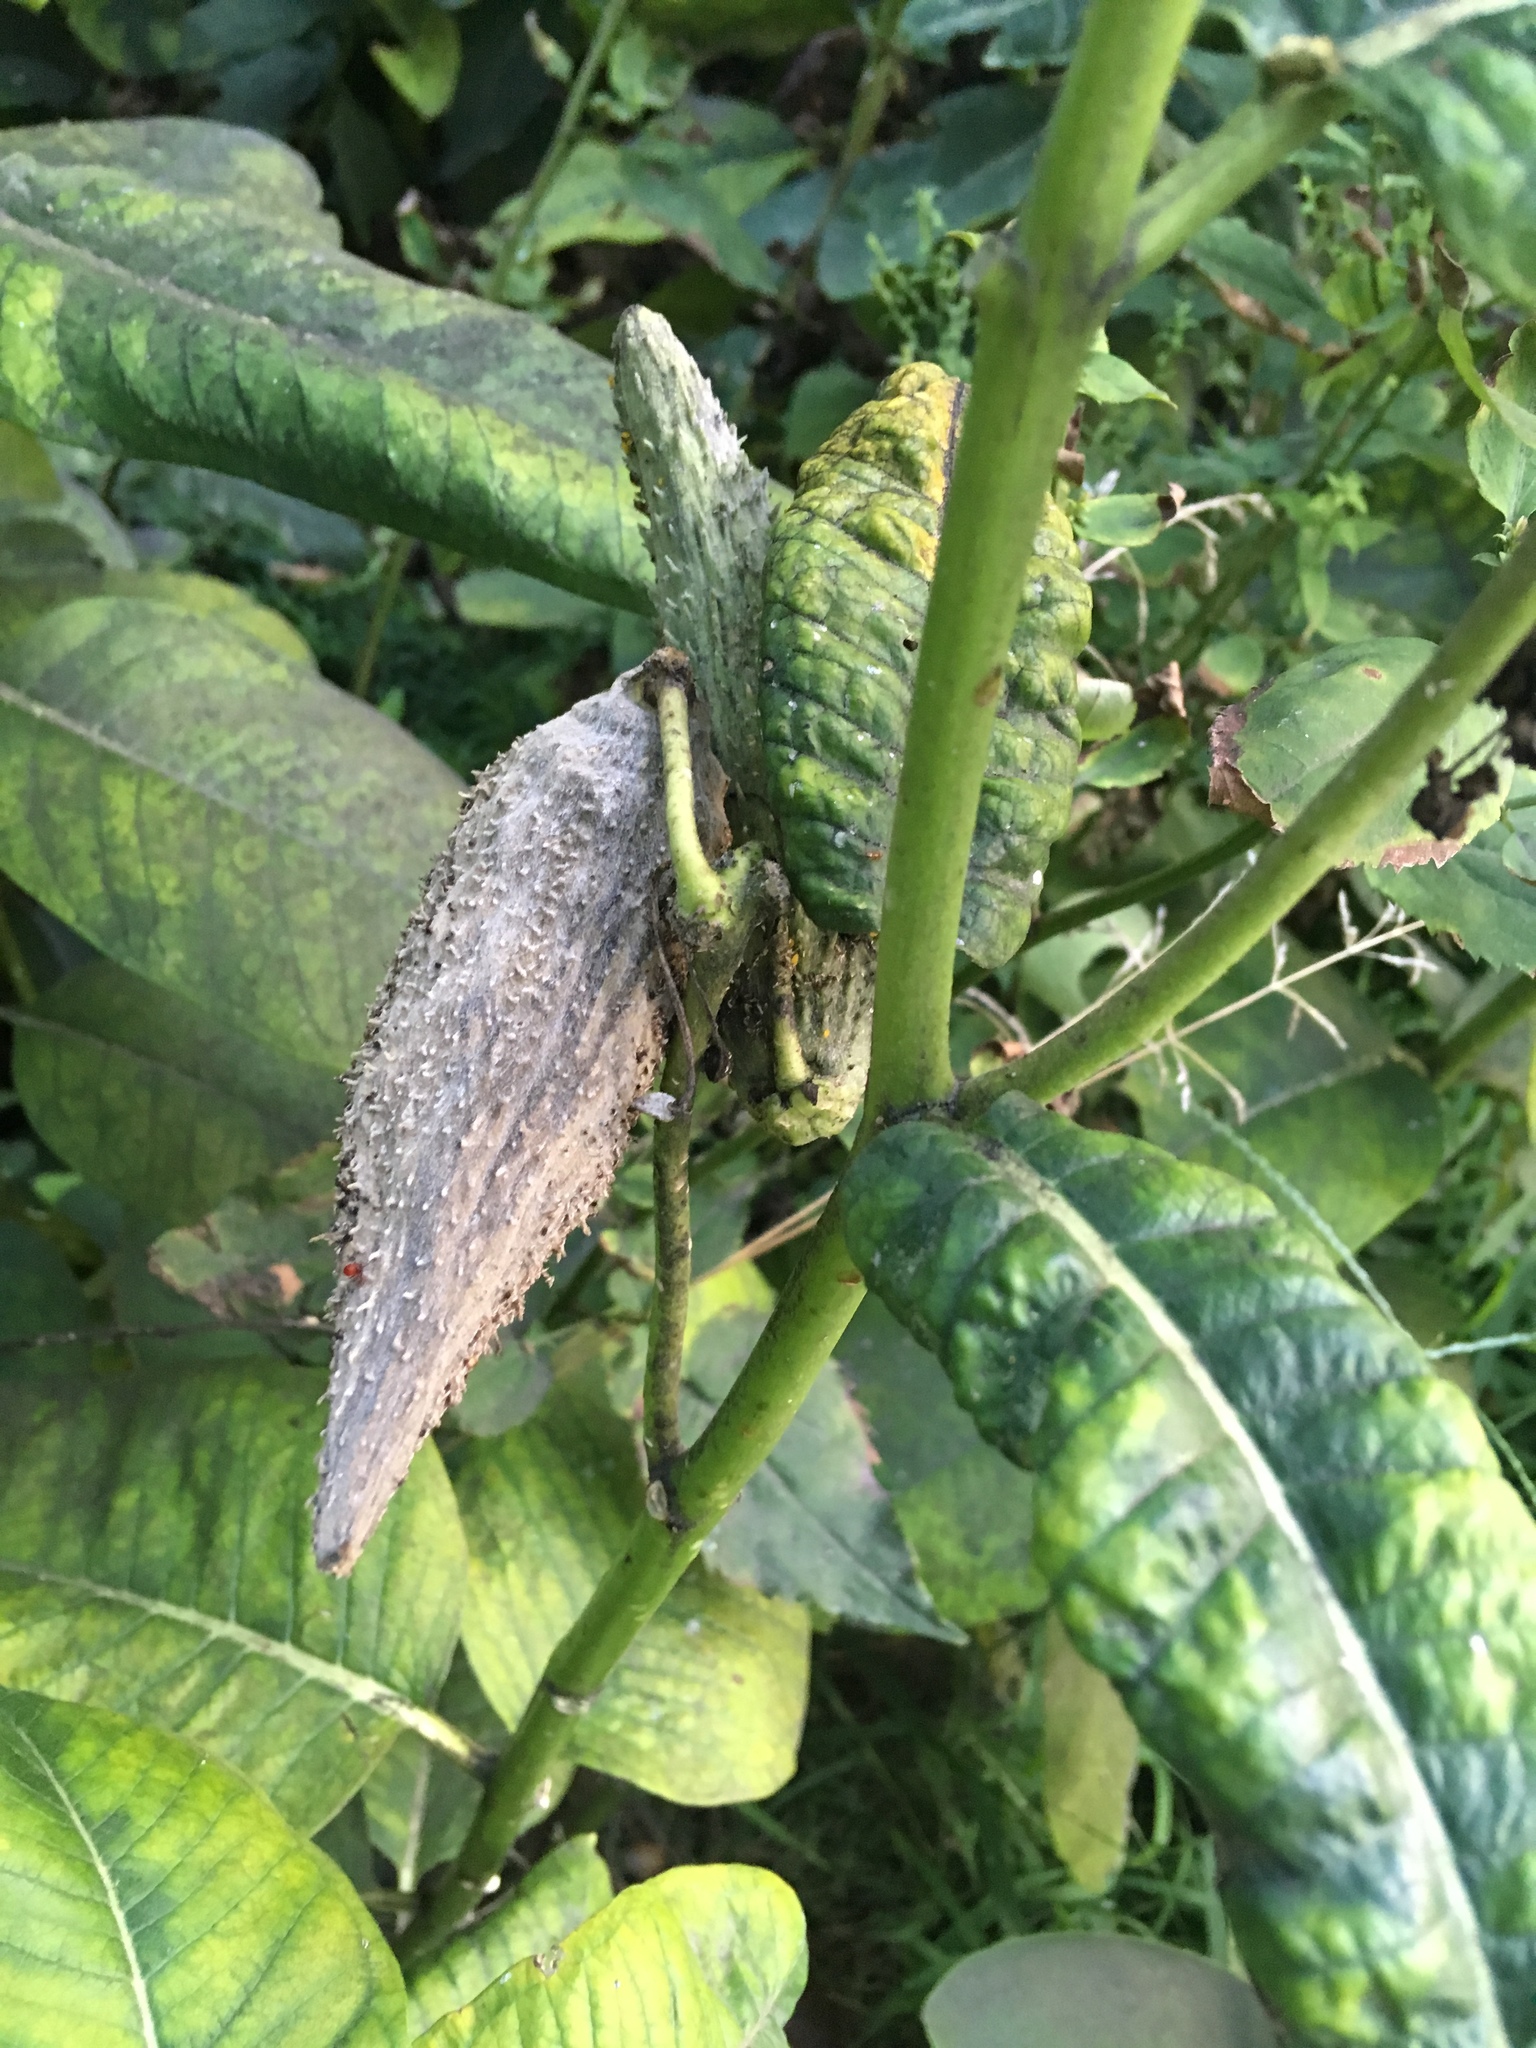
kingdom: Plantae
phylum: Tracheophyta
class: Magnoliopsida
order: Gentianales
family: Apocynaceae
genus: Asclepias
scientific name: Asclepias syriaca
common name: Common milkweed
